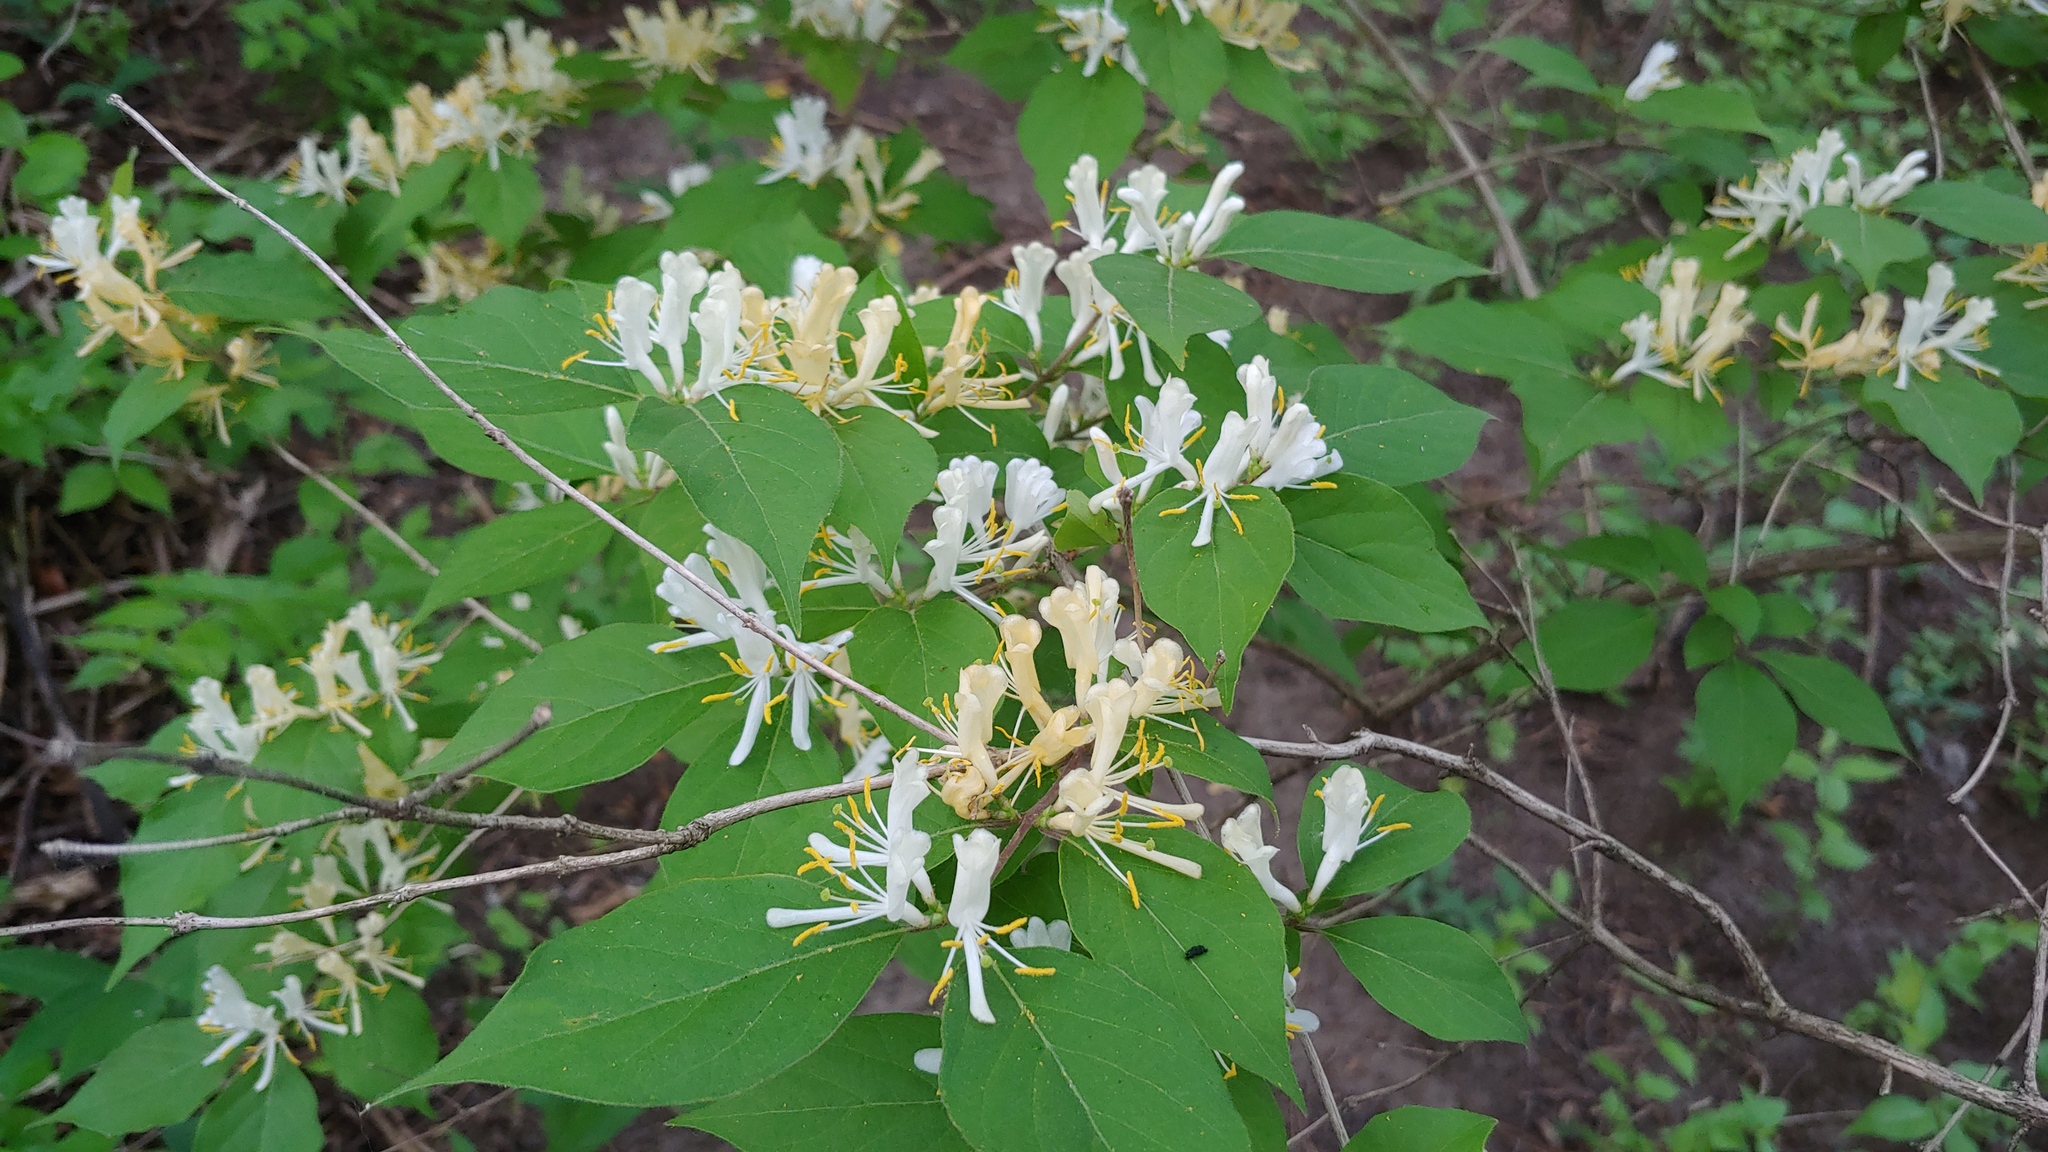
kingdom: Plantae
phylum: Tracheophyta
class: Magnoliopsida
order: Dipsacales
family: Caprifoliaceae
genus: Lonicera
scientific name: Lonicera maackii
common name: Amur honeysuckle
